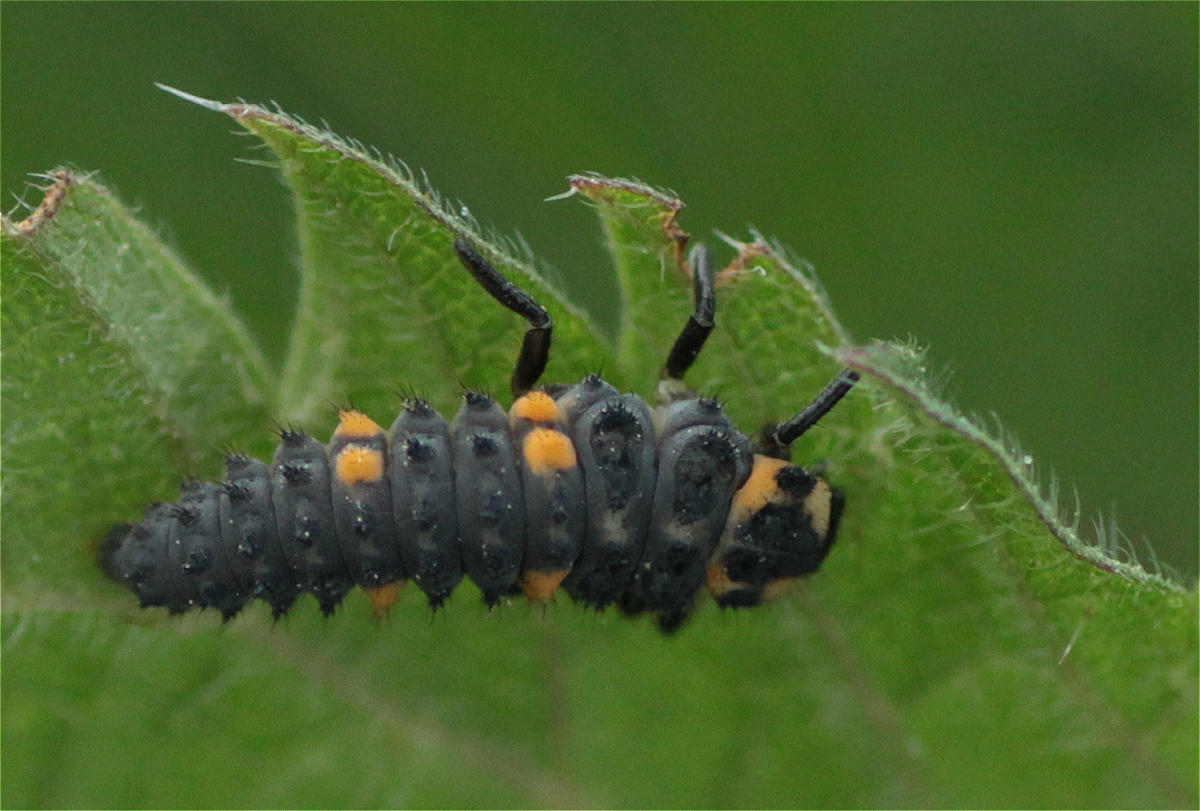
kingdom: Animalia
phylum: Arthropoda
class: Insecta
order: Coleoptera
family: Coccinellidae
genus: Coccinella
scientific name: Coccinella septempunctata
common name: Sevenspotted lady beetle
